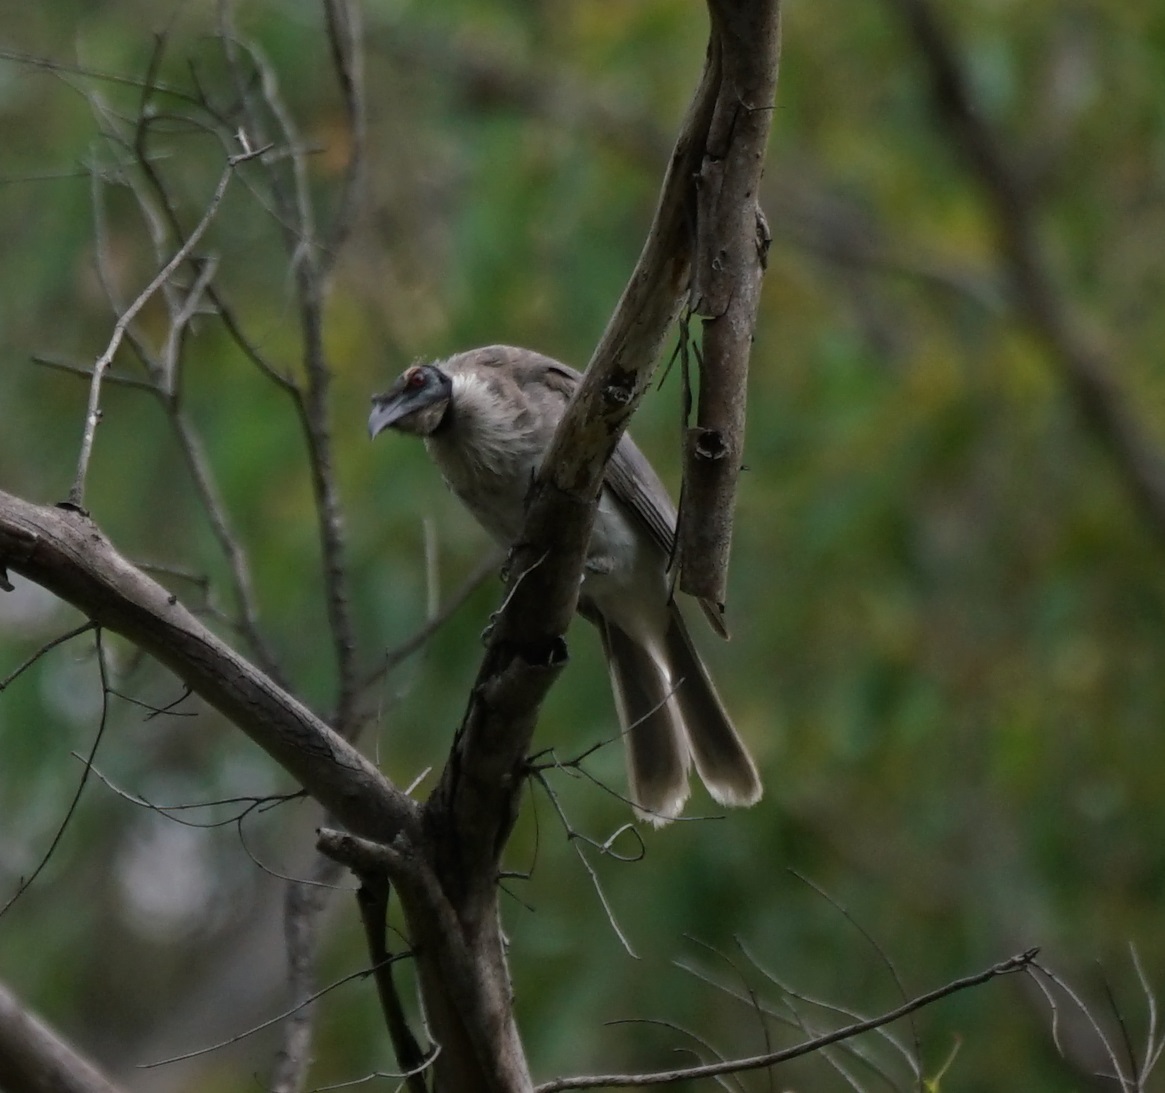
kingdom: Animalia
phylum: Chordata
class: Aves
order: Passeriformes
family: Meliphagidae
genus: Philemon
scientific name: Philemon corniculatus
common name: Noisy friarbird
